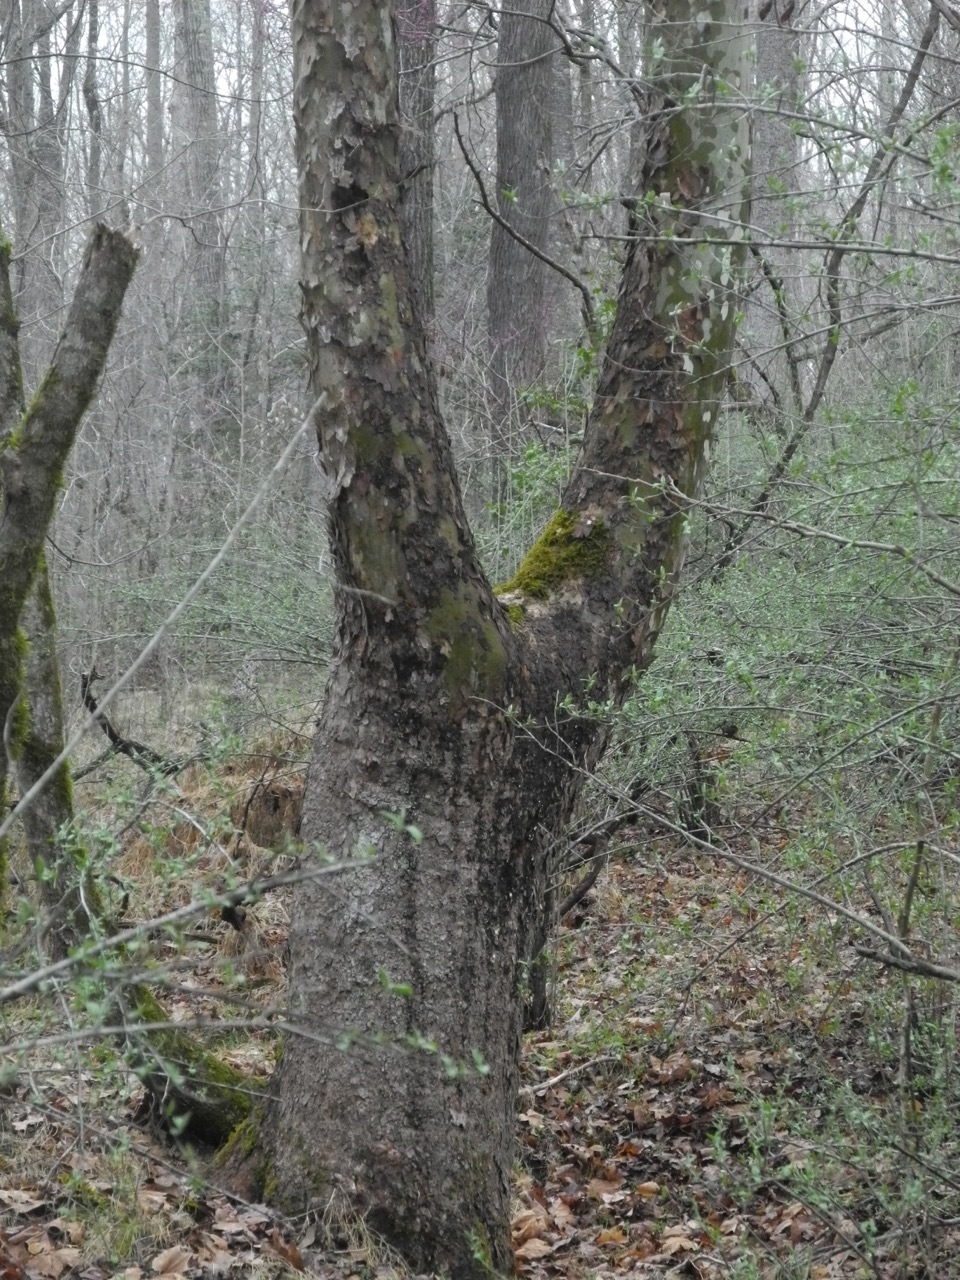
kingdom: Plantae
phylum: Tracheophyta
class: Magnoliopsida
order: Proteales
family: Platanaceae
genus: Platanus
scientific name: Platanus occidentalis
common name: American sycamore
